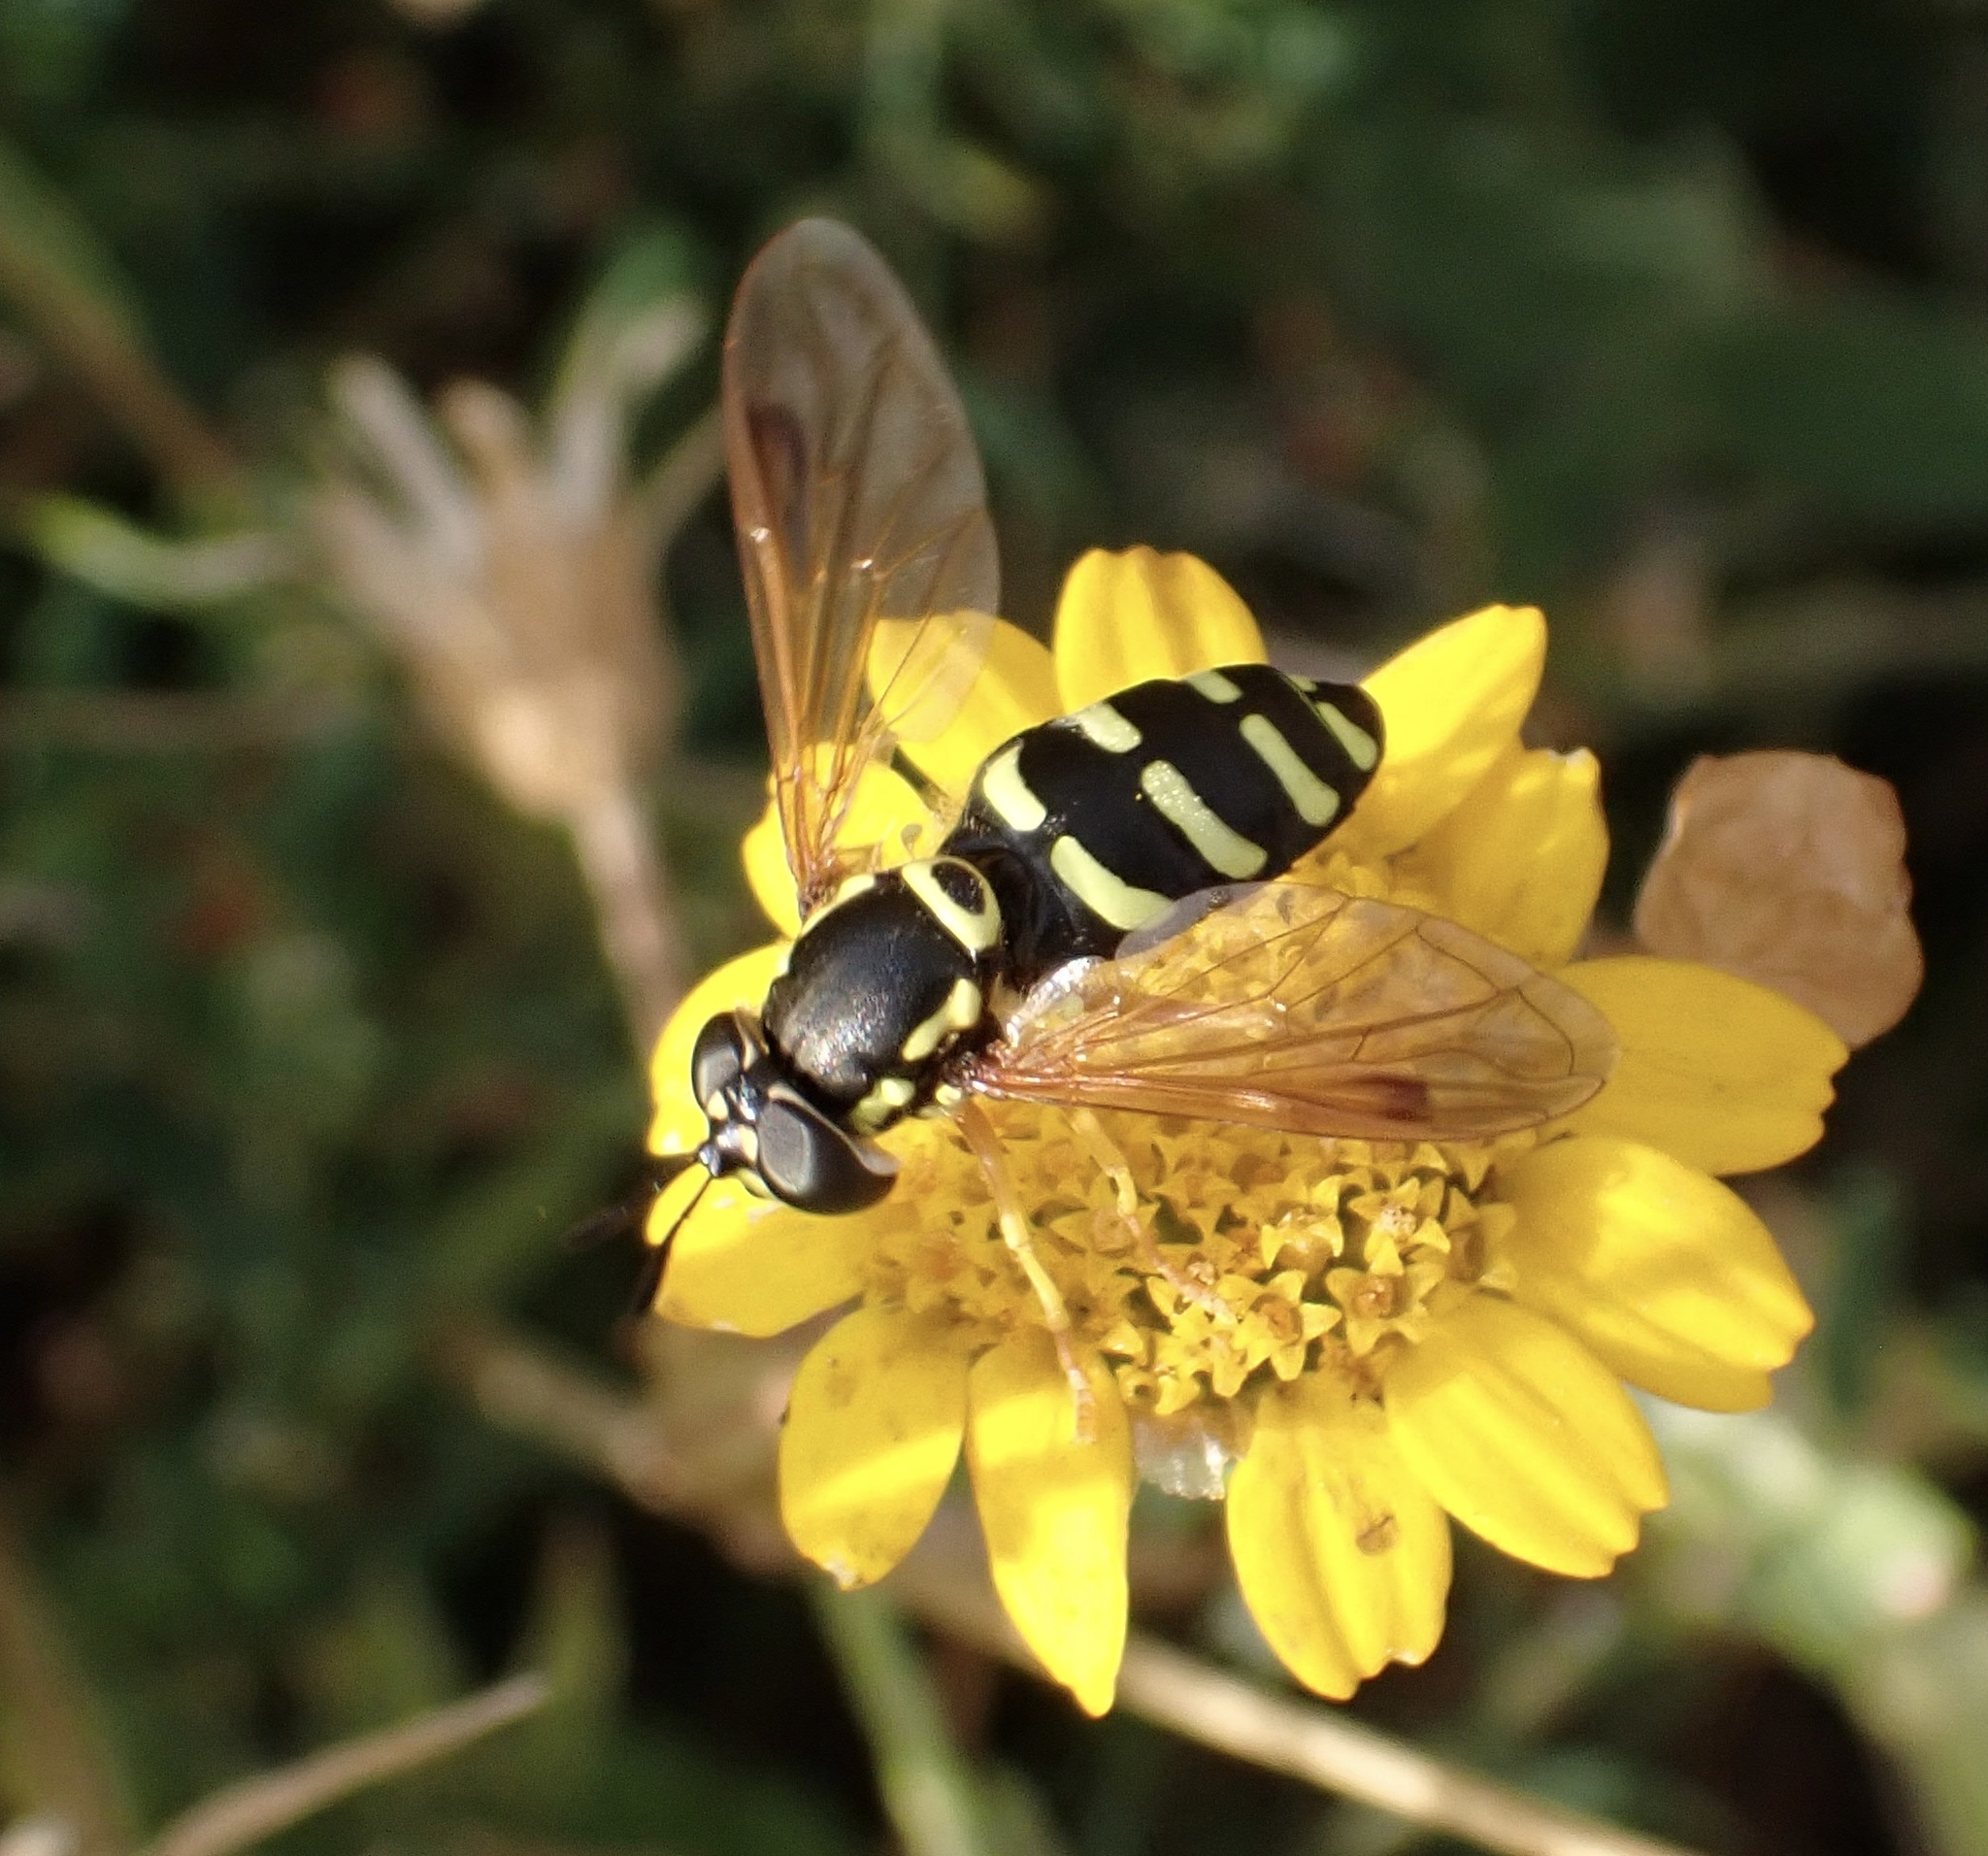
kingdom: Animalia
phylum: Arthropoda
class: Insecta
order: Diptera
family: Syrphidae
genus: Chrysotoxum
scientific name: Chrysotoxum festivum
